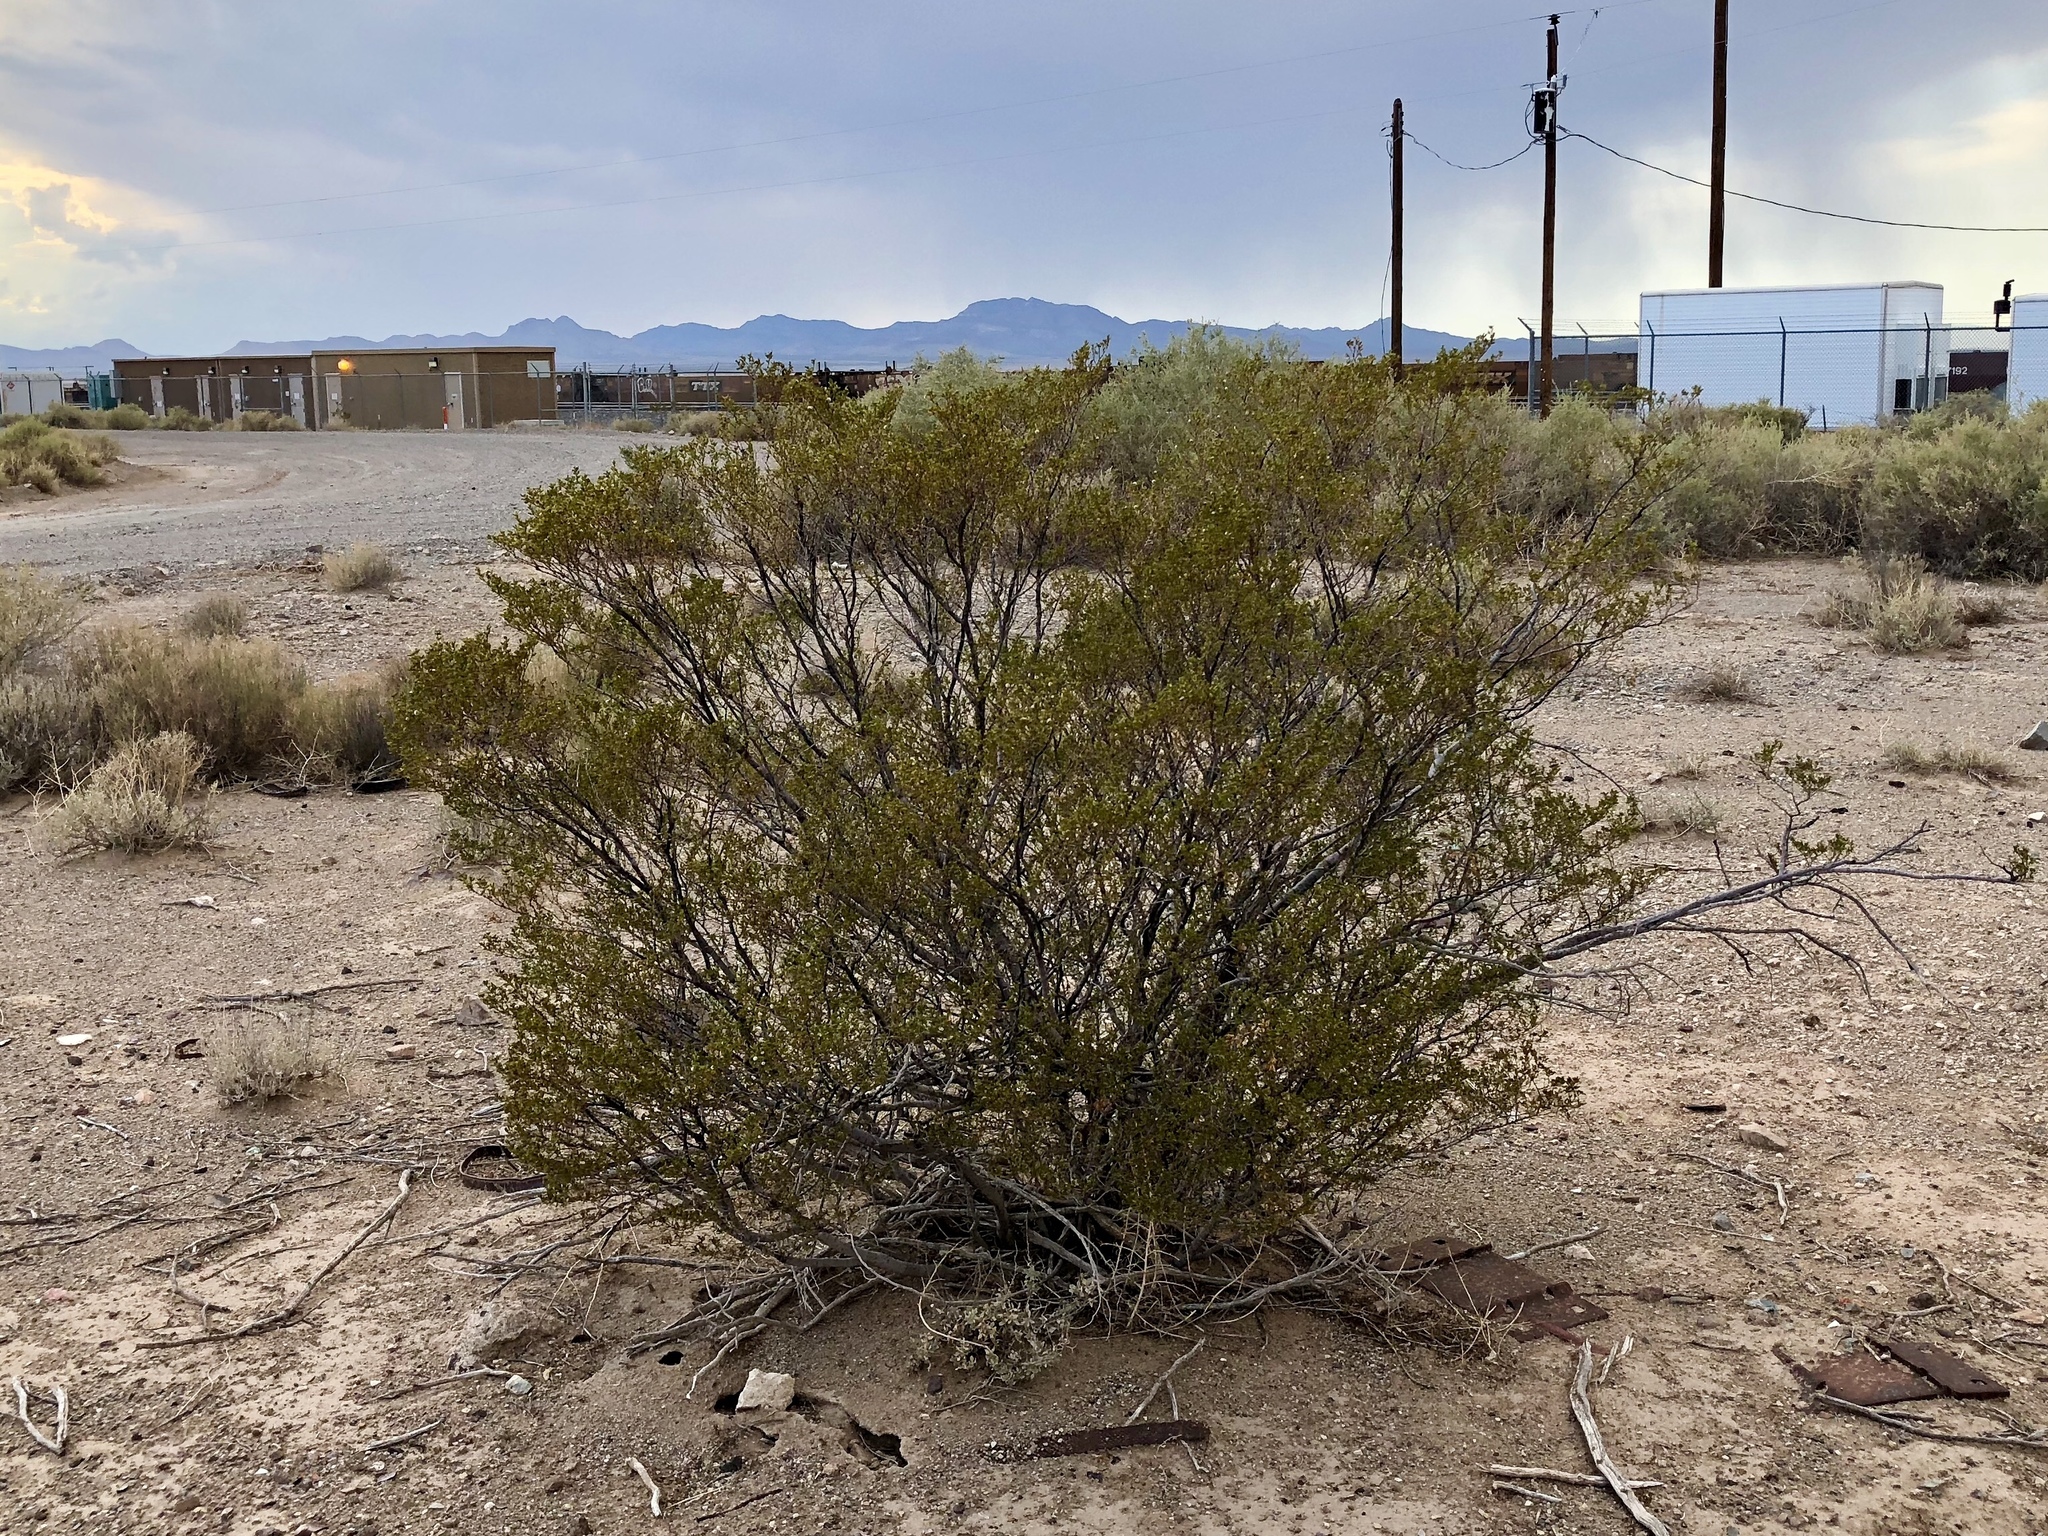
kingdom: Plantae
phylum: Tracheophyta
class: Magnoliopsida
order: Zygophyllales
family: Zygophyllaceae
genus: Larrea
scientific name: Larrea tridentata
